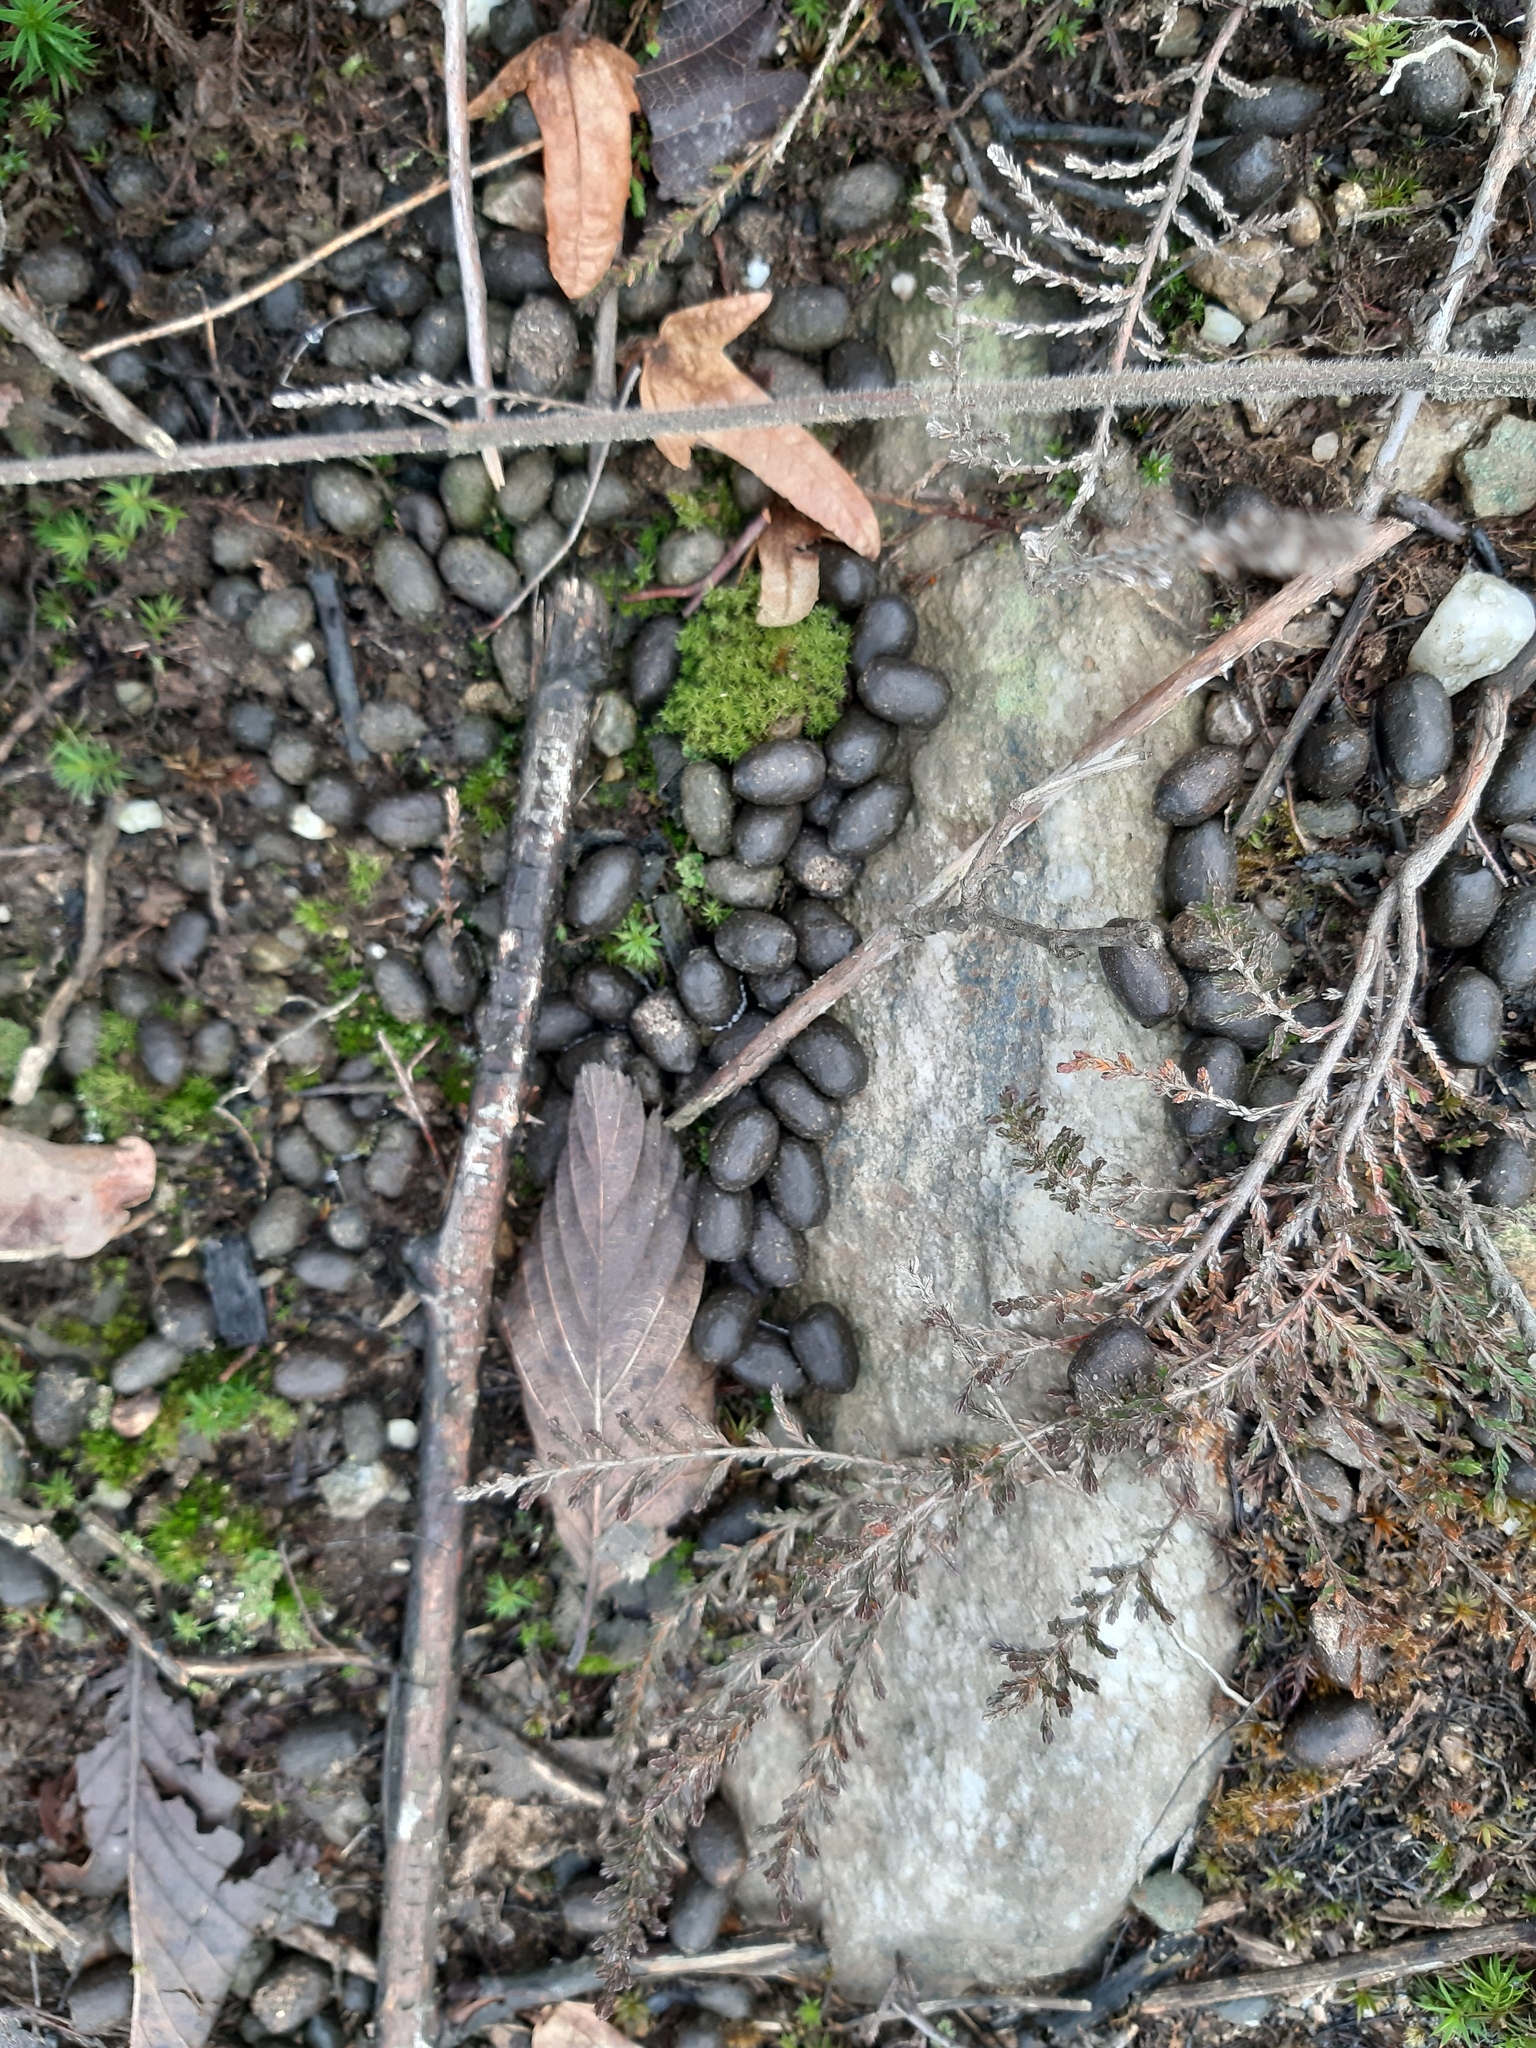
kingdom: Animalia
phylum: Chordata
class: Mammalia
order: Artiodactyla
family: Cervidae
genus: Capreolus
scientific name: Capreolus capreolus
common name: Western roe deer
